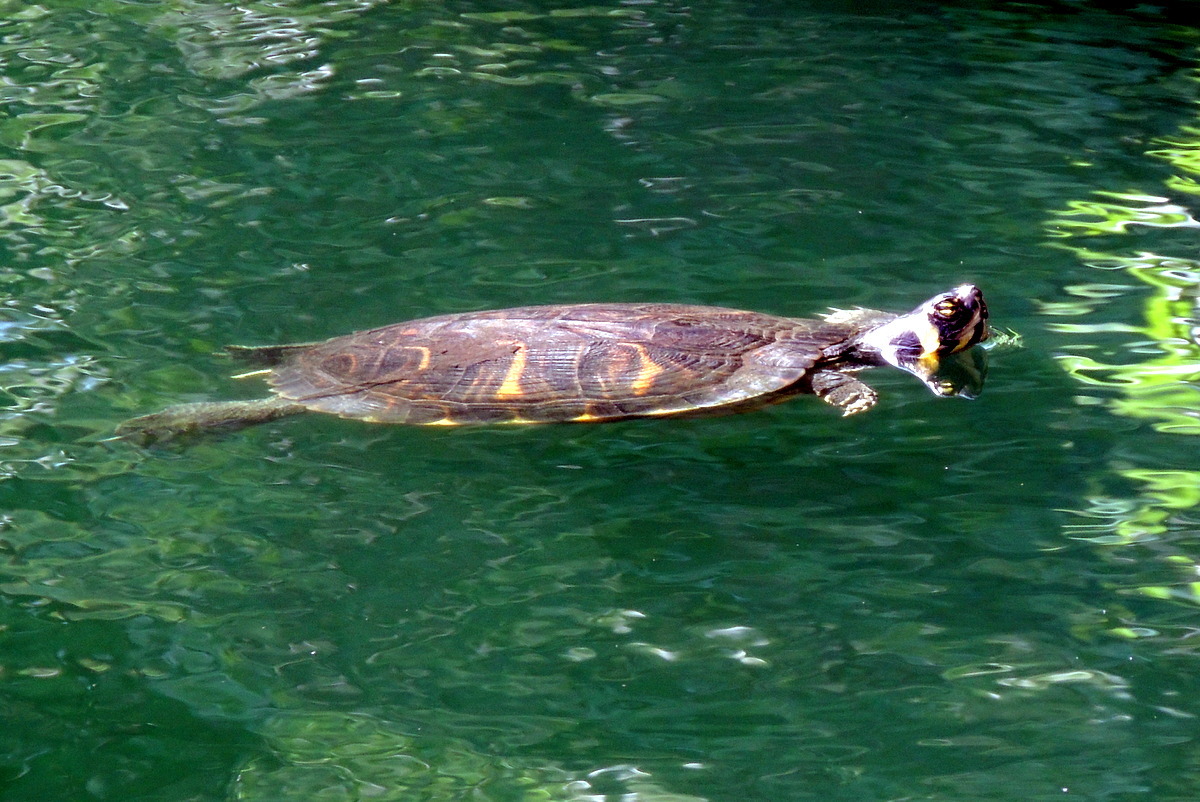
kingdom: Animalia
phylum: Chordata
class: Testudines
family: Emydidae
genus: Trachemys
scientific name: Trachemys scripta
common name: Slider
